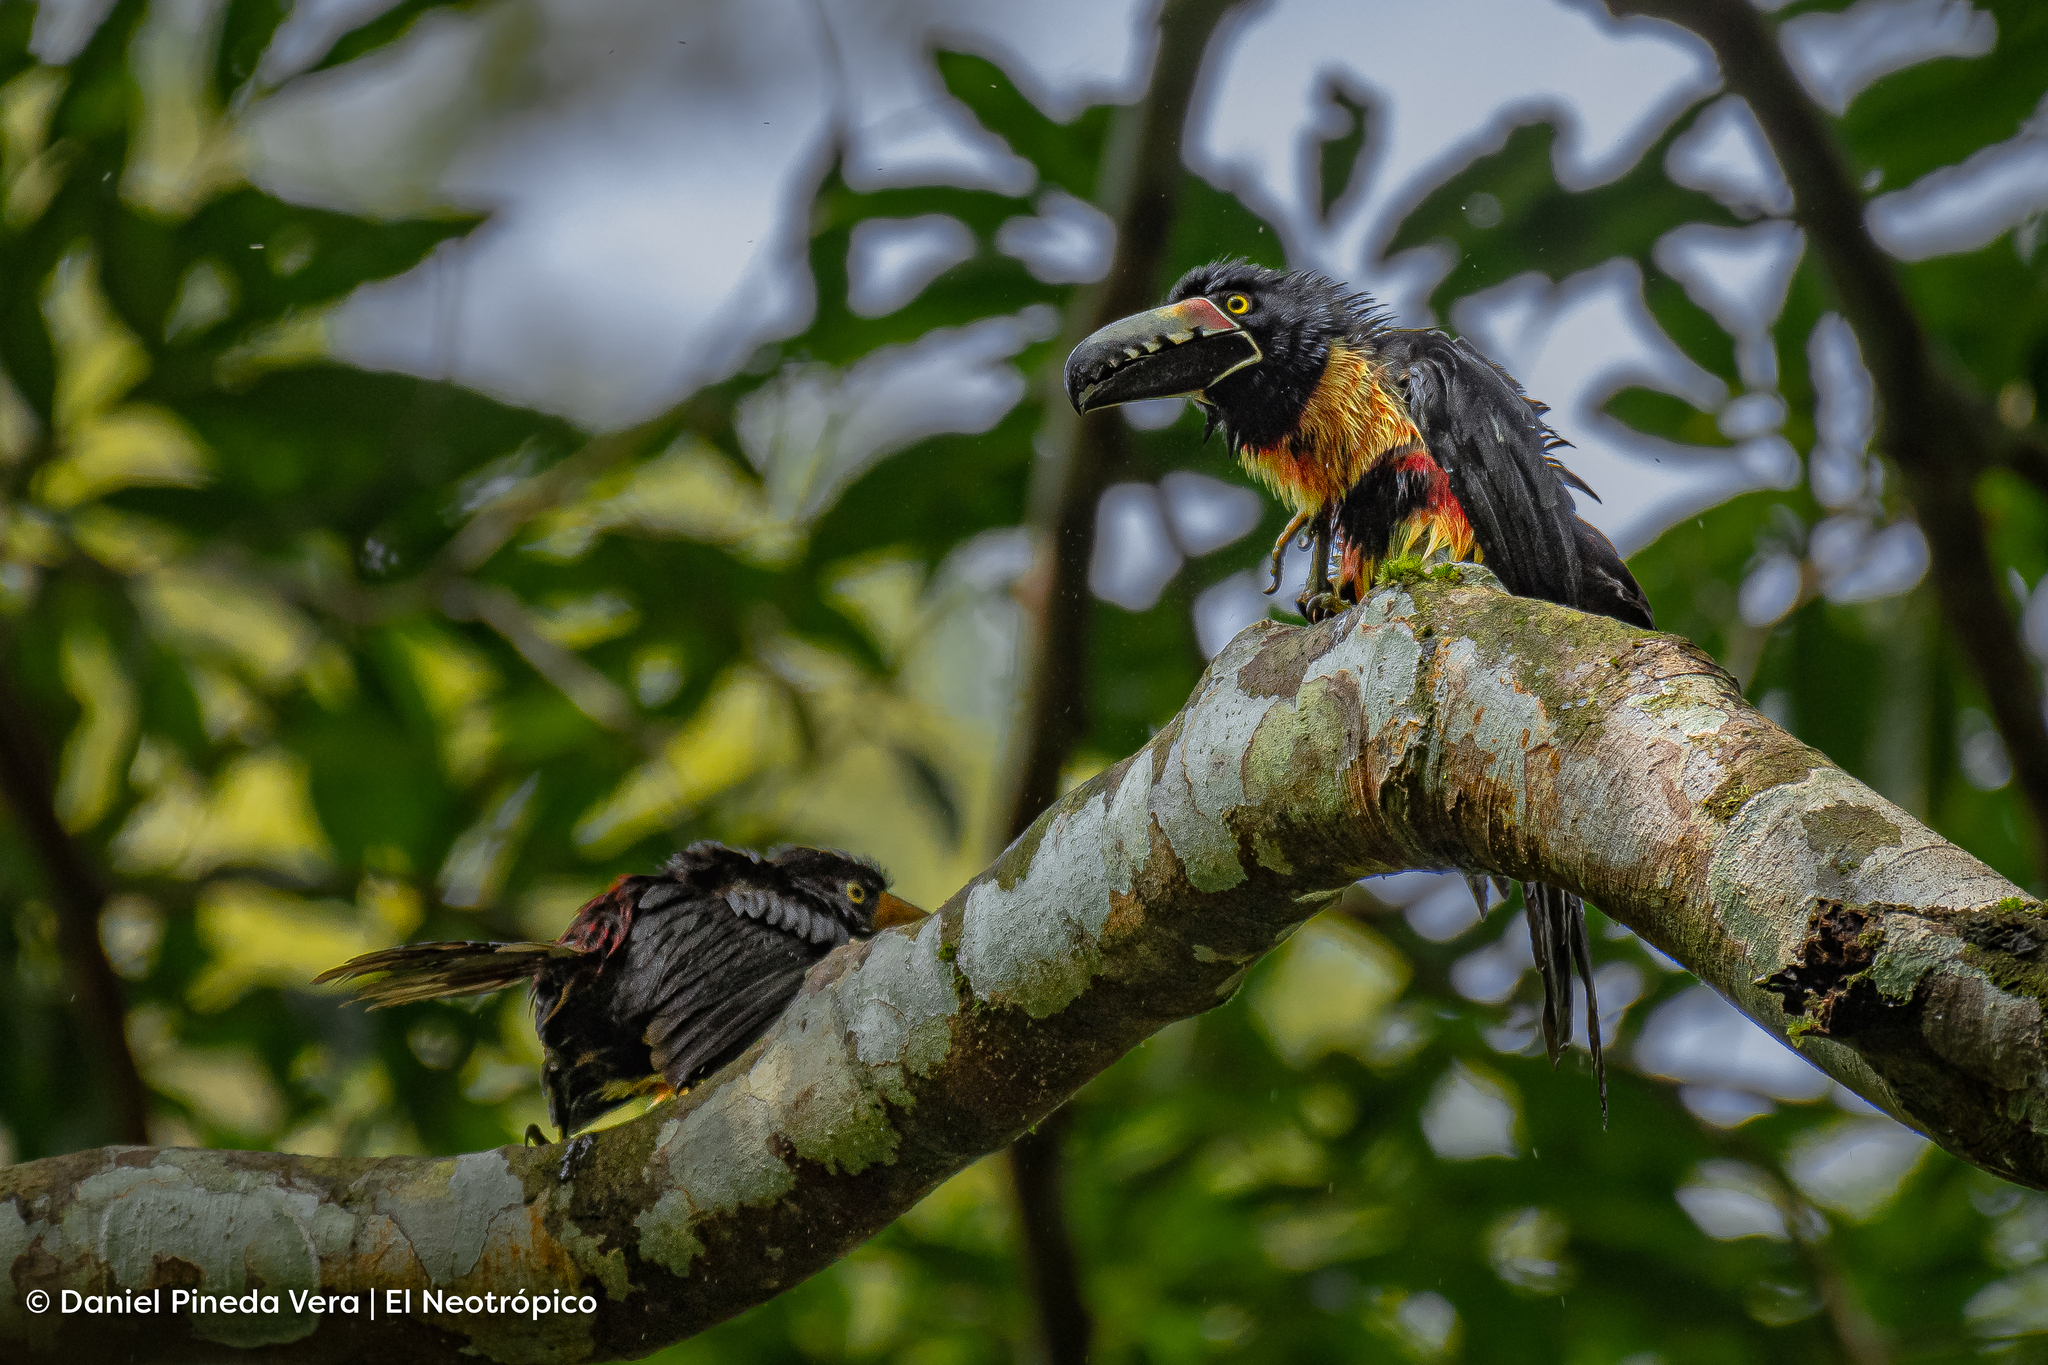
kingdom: Animalia
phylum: Chordata
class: Aves
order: Piciformes
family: Ramphastidae
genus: Pteroglossus
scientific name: Pteroglossus torquatus
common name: Collared aracari
